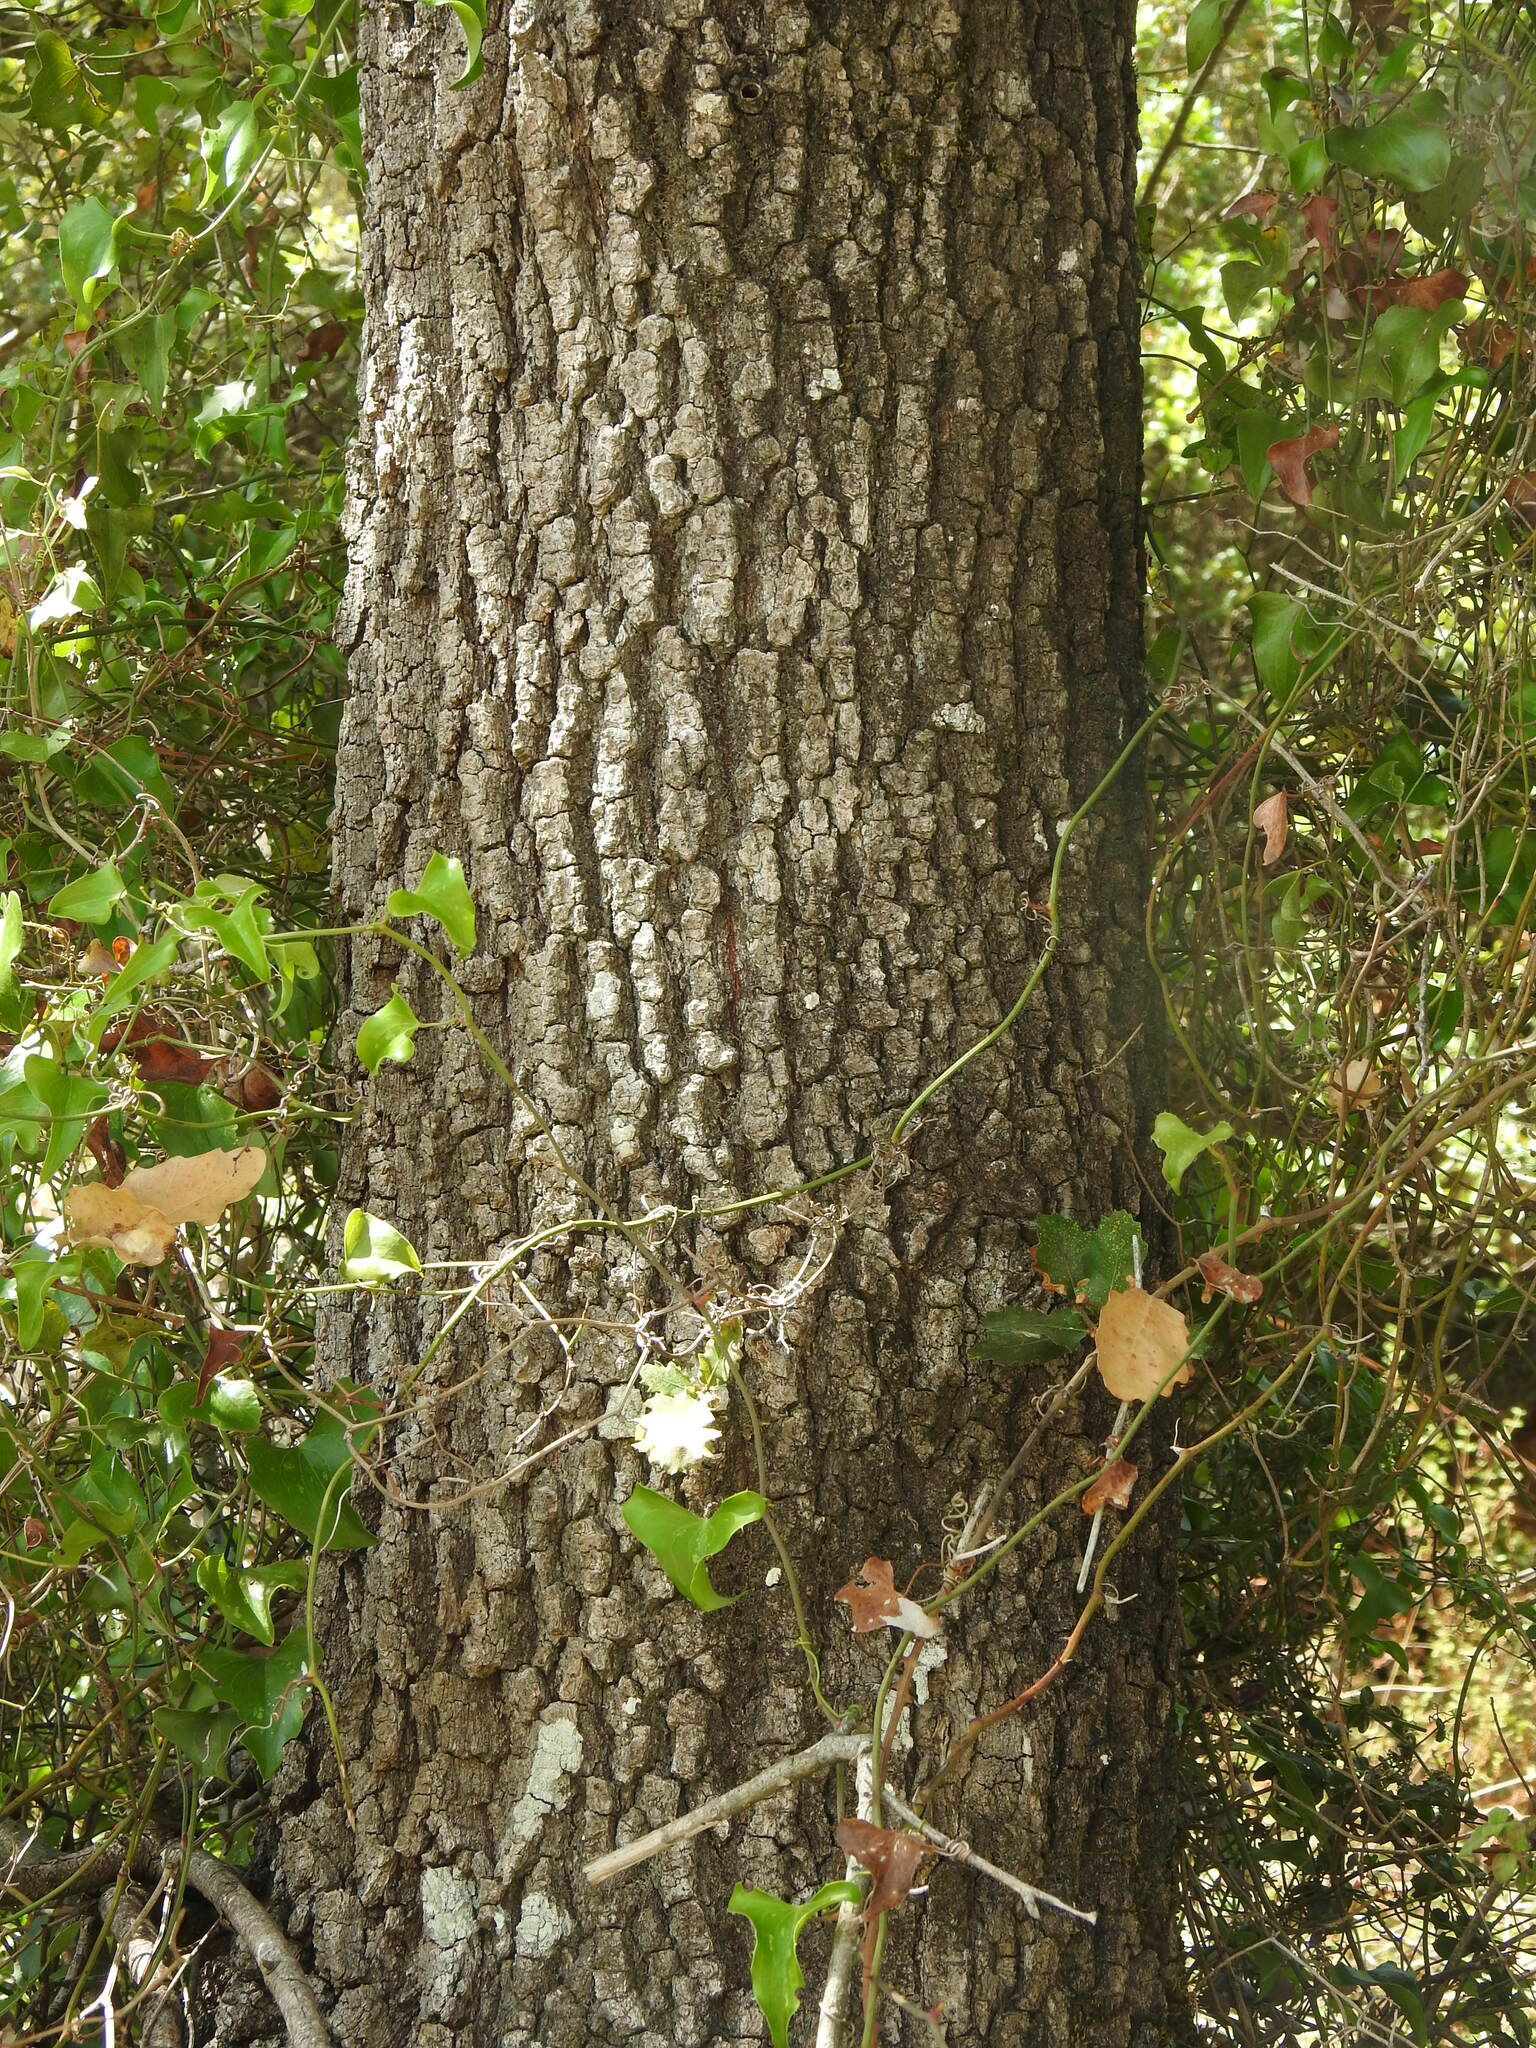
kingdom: Plantae
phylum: Tracheophyta
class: Magnoliopsida
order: Fagales
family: Fagaceae
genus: Quercus
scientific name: Quercus faginea
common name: Gall oak tree
